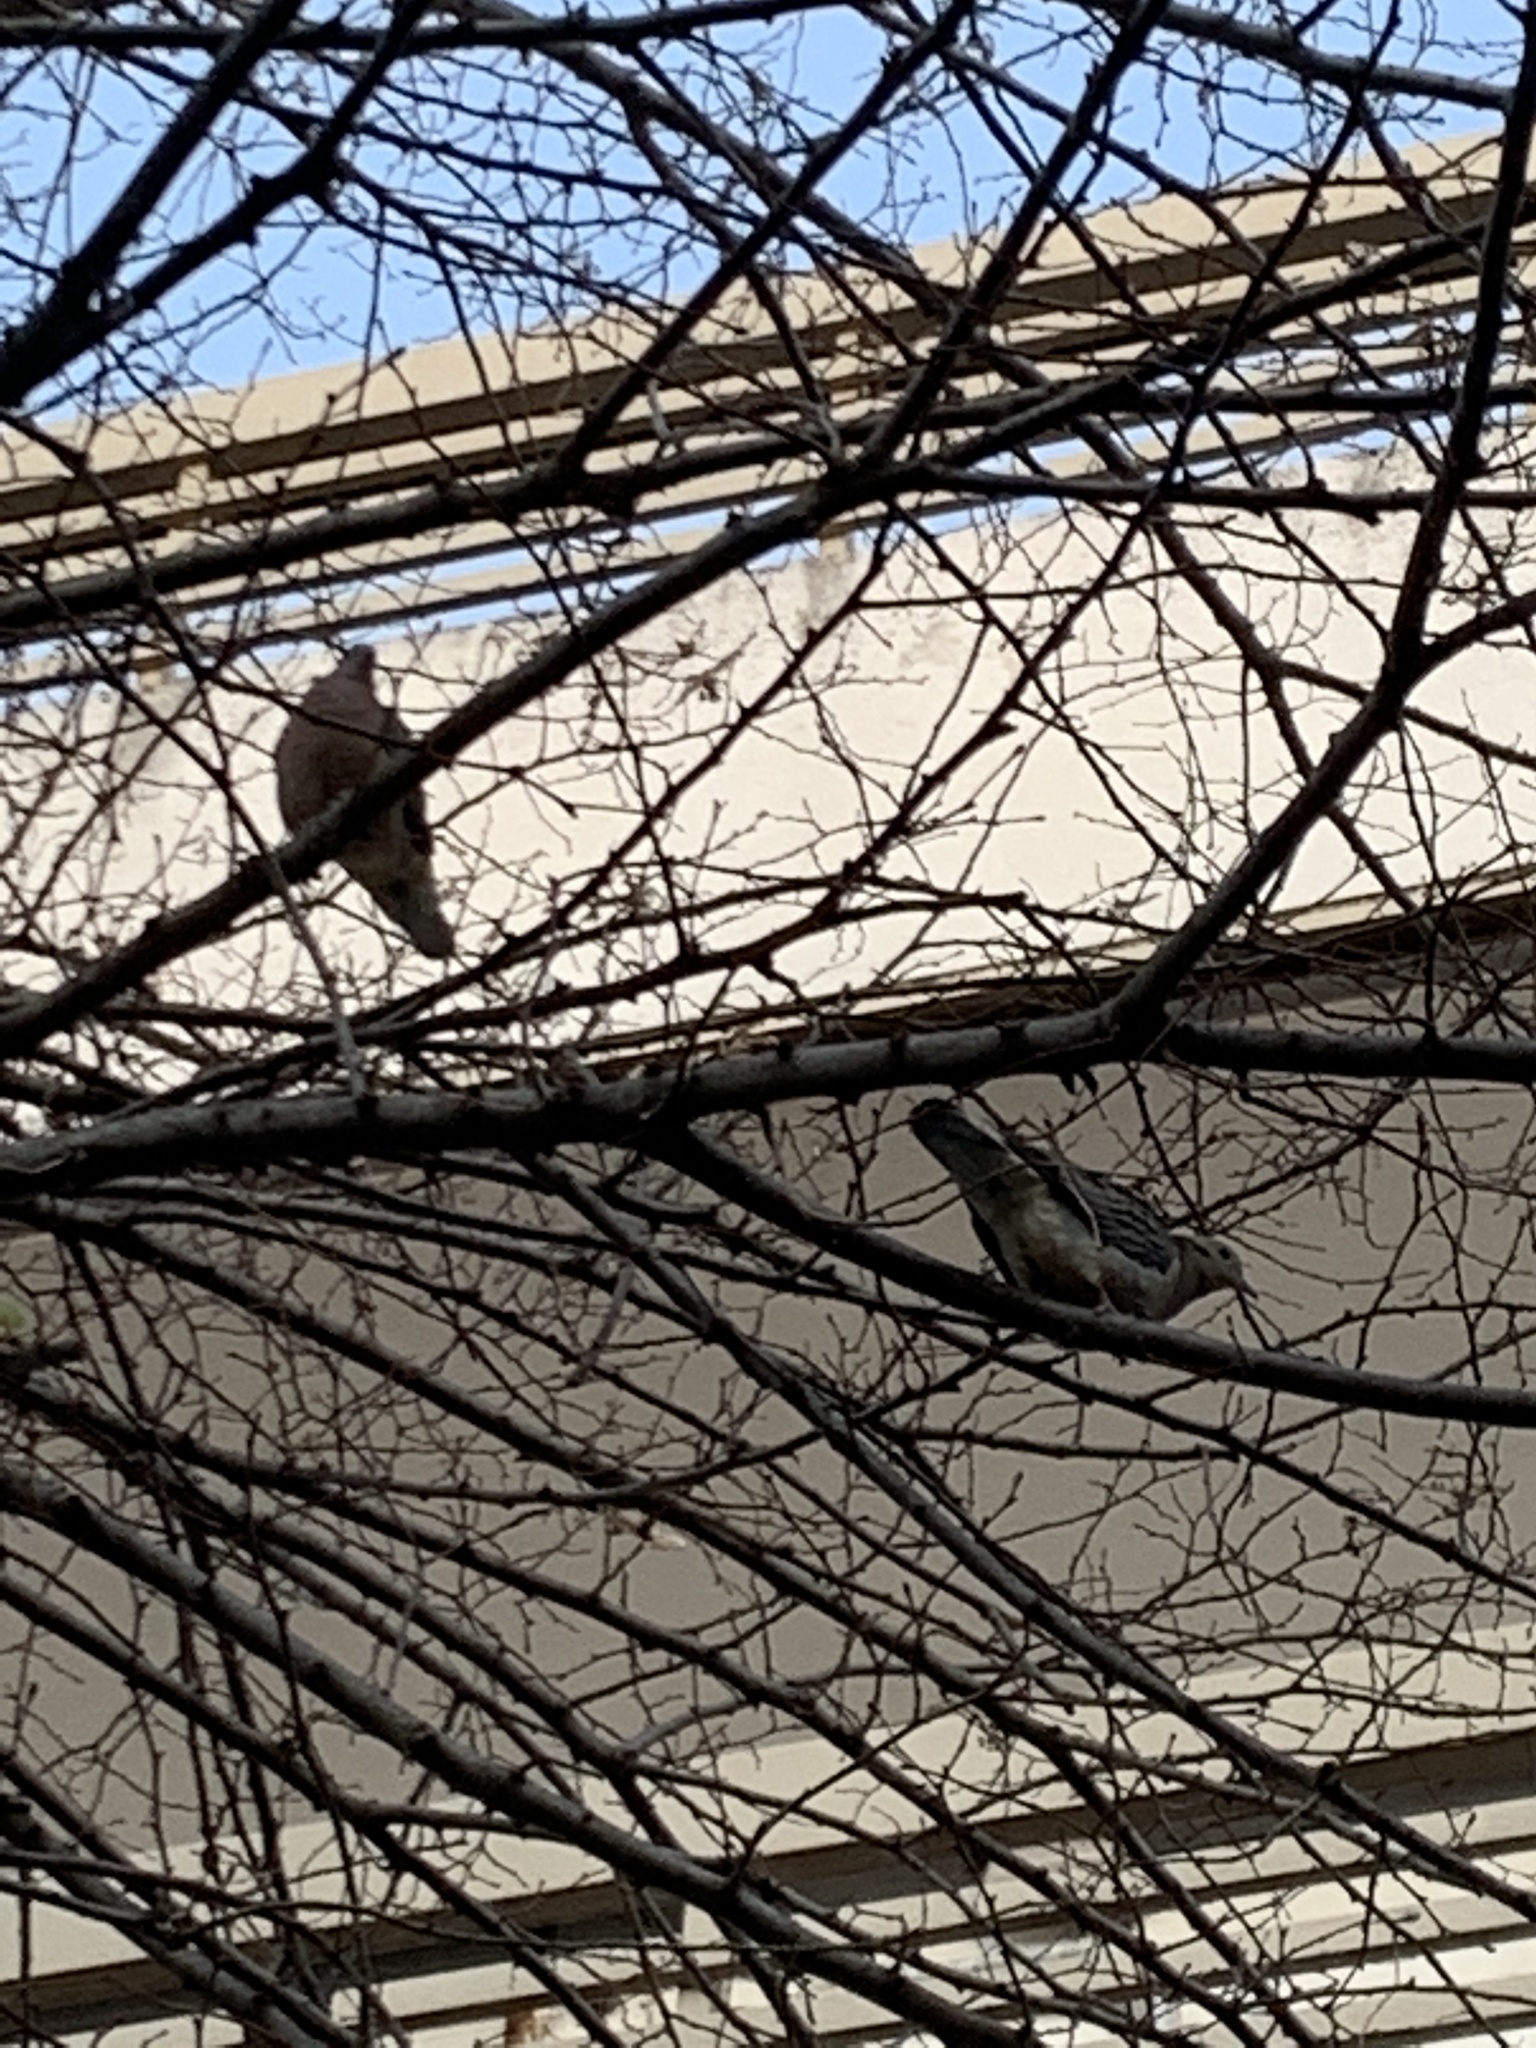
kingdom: Animalia
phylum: Chordata
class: Aves
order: Columbiformes
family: Columbidae
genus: Zenaida
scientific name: Zenaida auriculata
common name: Eared dove
